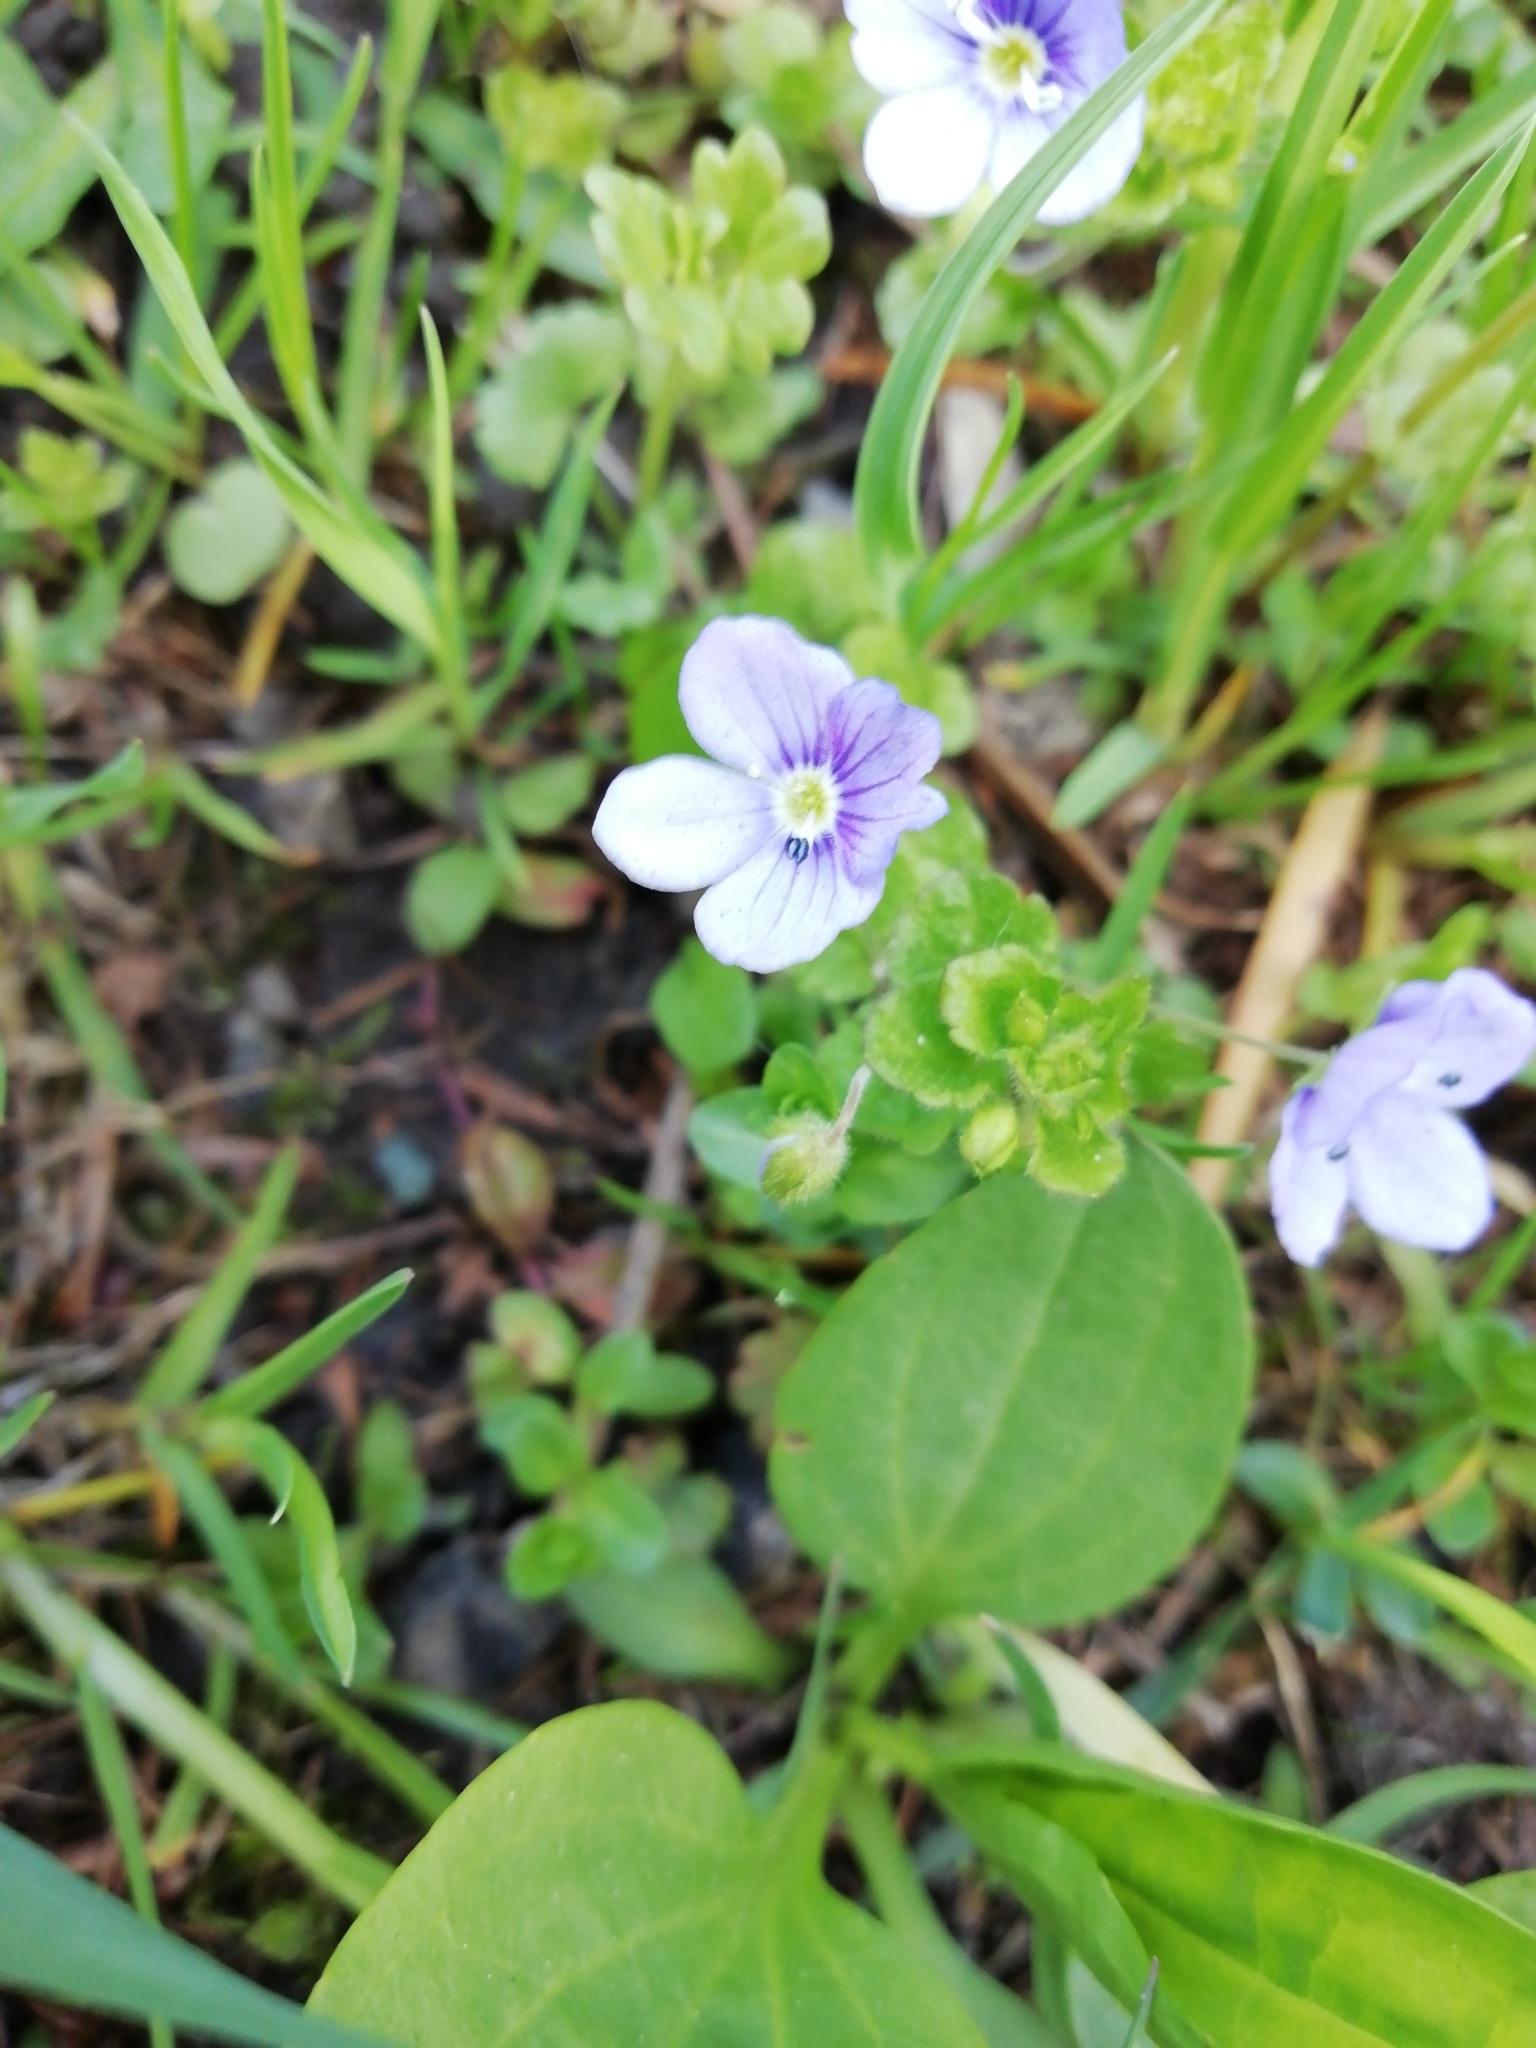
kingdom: Plantae
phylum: Tracheophyta
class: Magnoliopsida
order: Lamiales
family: Plantaginaceae
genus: Veronica
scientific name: Veronica filiformis
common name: Slender speedwell
